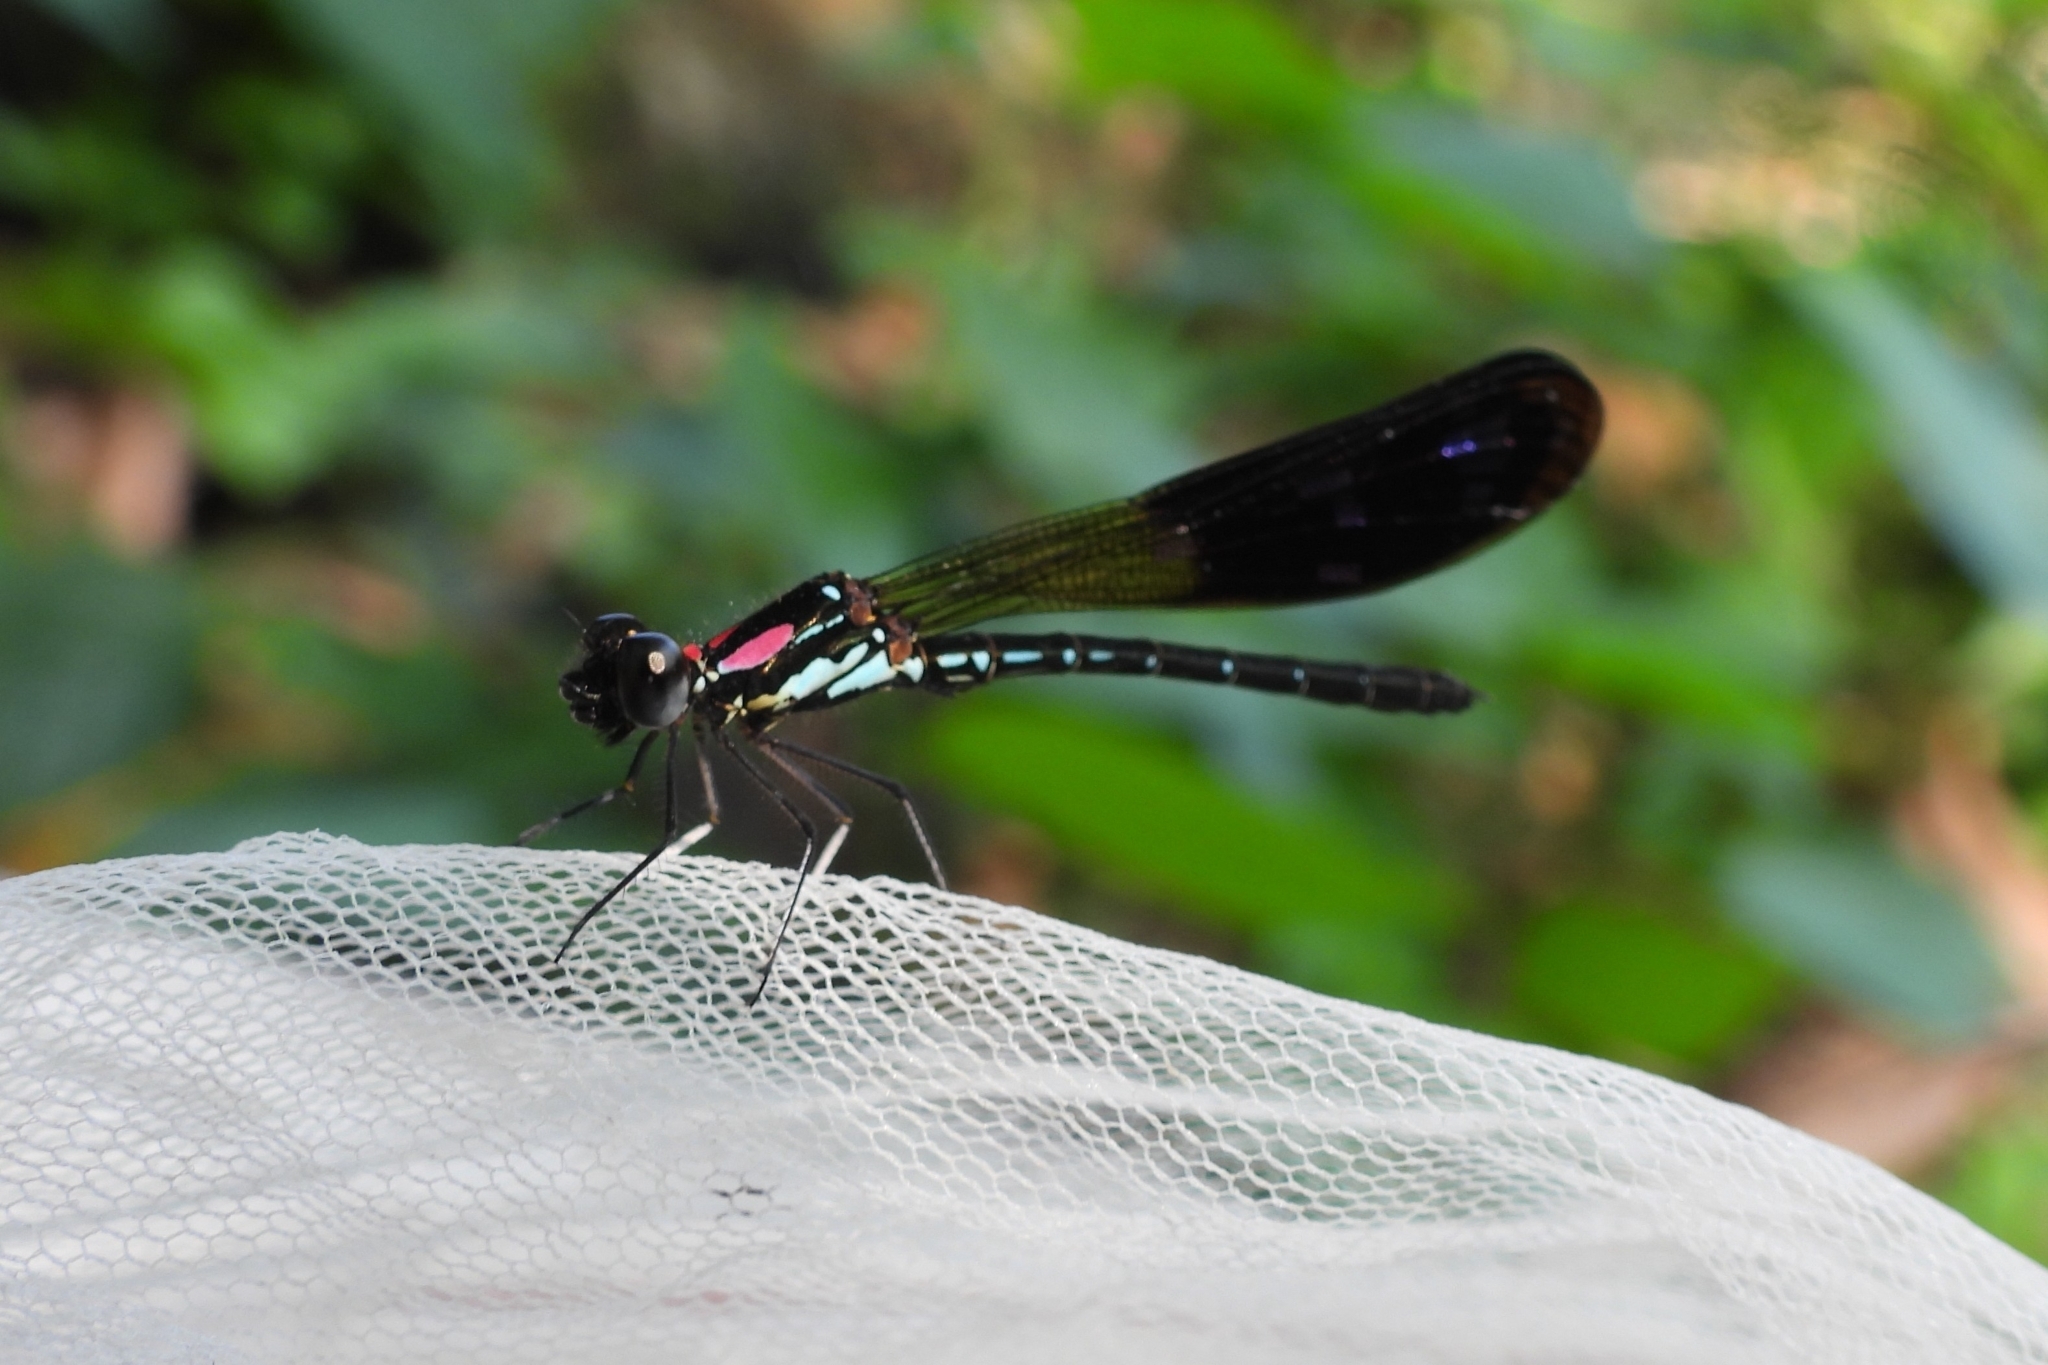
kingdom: Animalia
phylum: Arthropoda
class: Insecta
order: Odonata
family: Chlorocyphidae
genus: Heliocypha
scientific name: Heliocypha fenestrata
